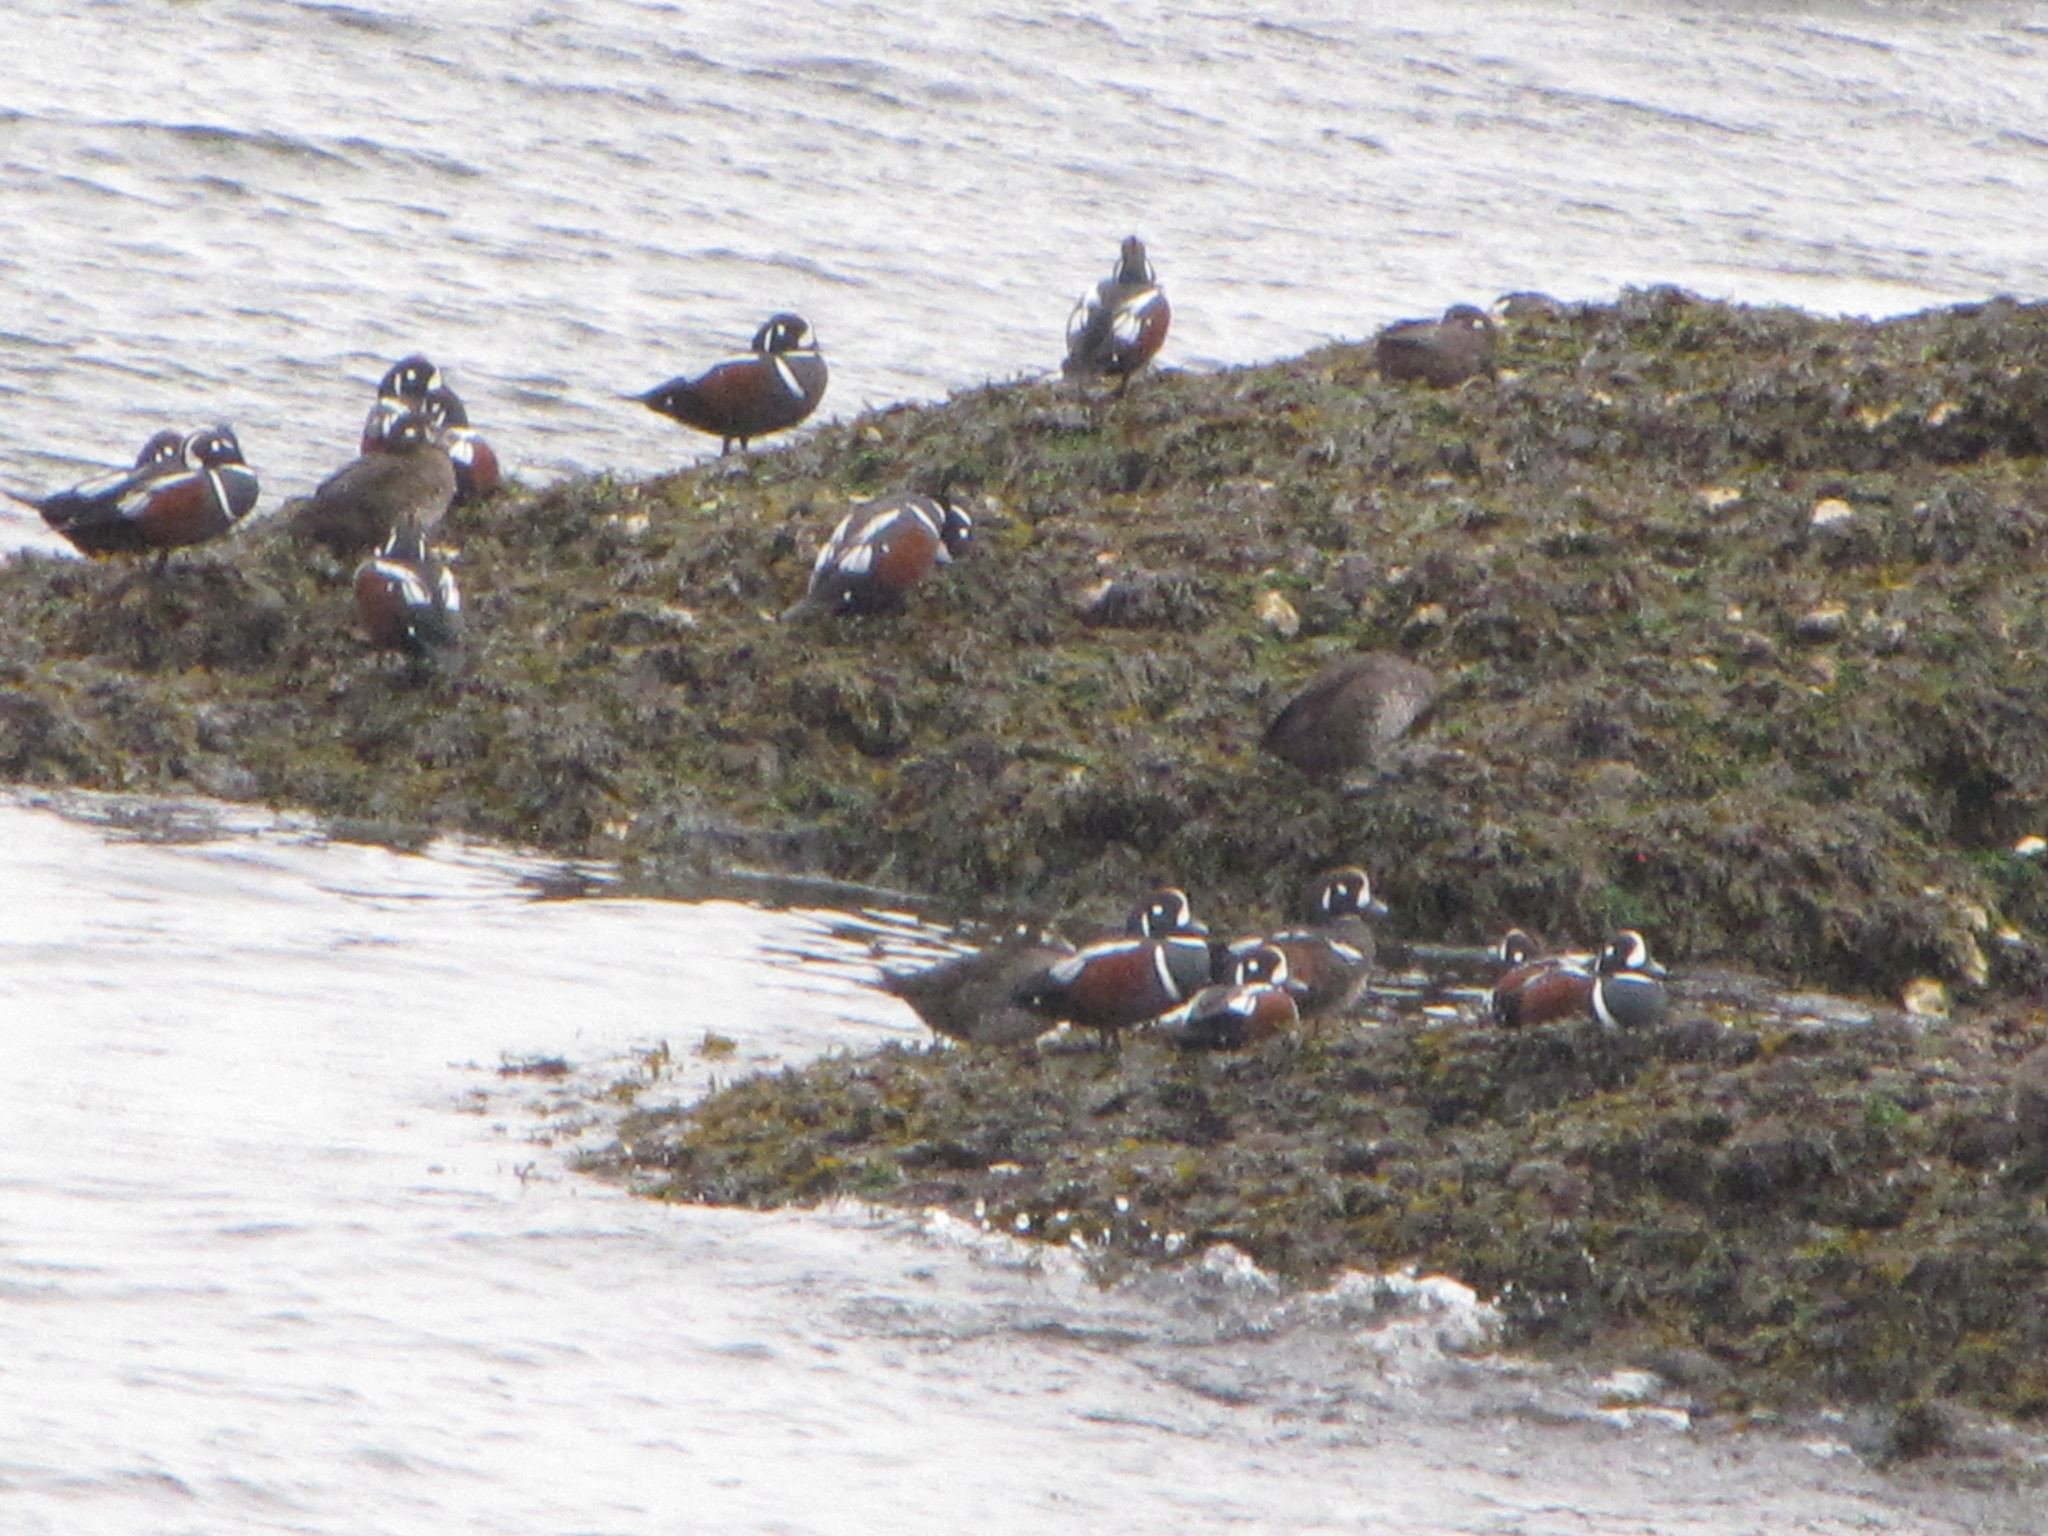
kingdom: Animalia
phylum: Chordata
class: Aves
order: Anseriformes
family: Anatidae
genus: Histrionicus
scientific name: Histrionicus histrionicus
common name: Harlequin duck
